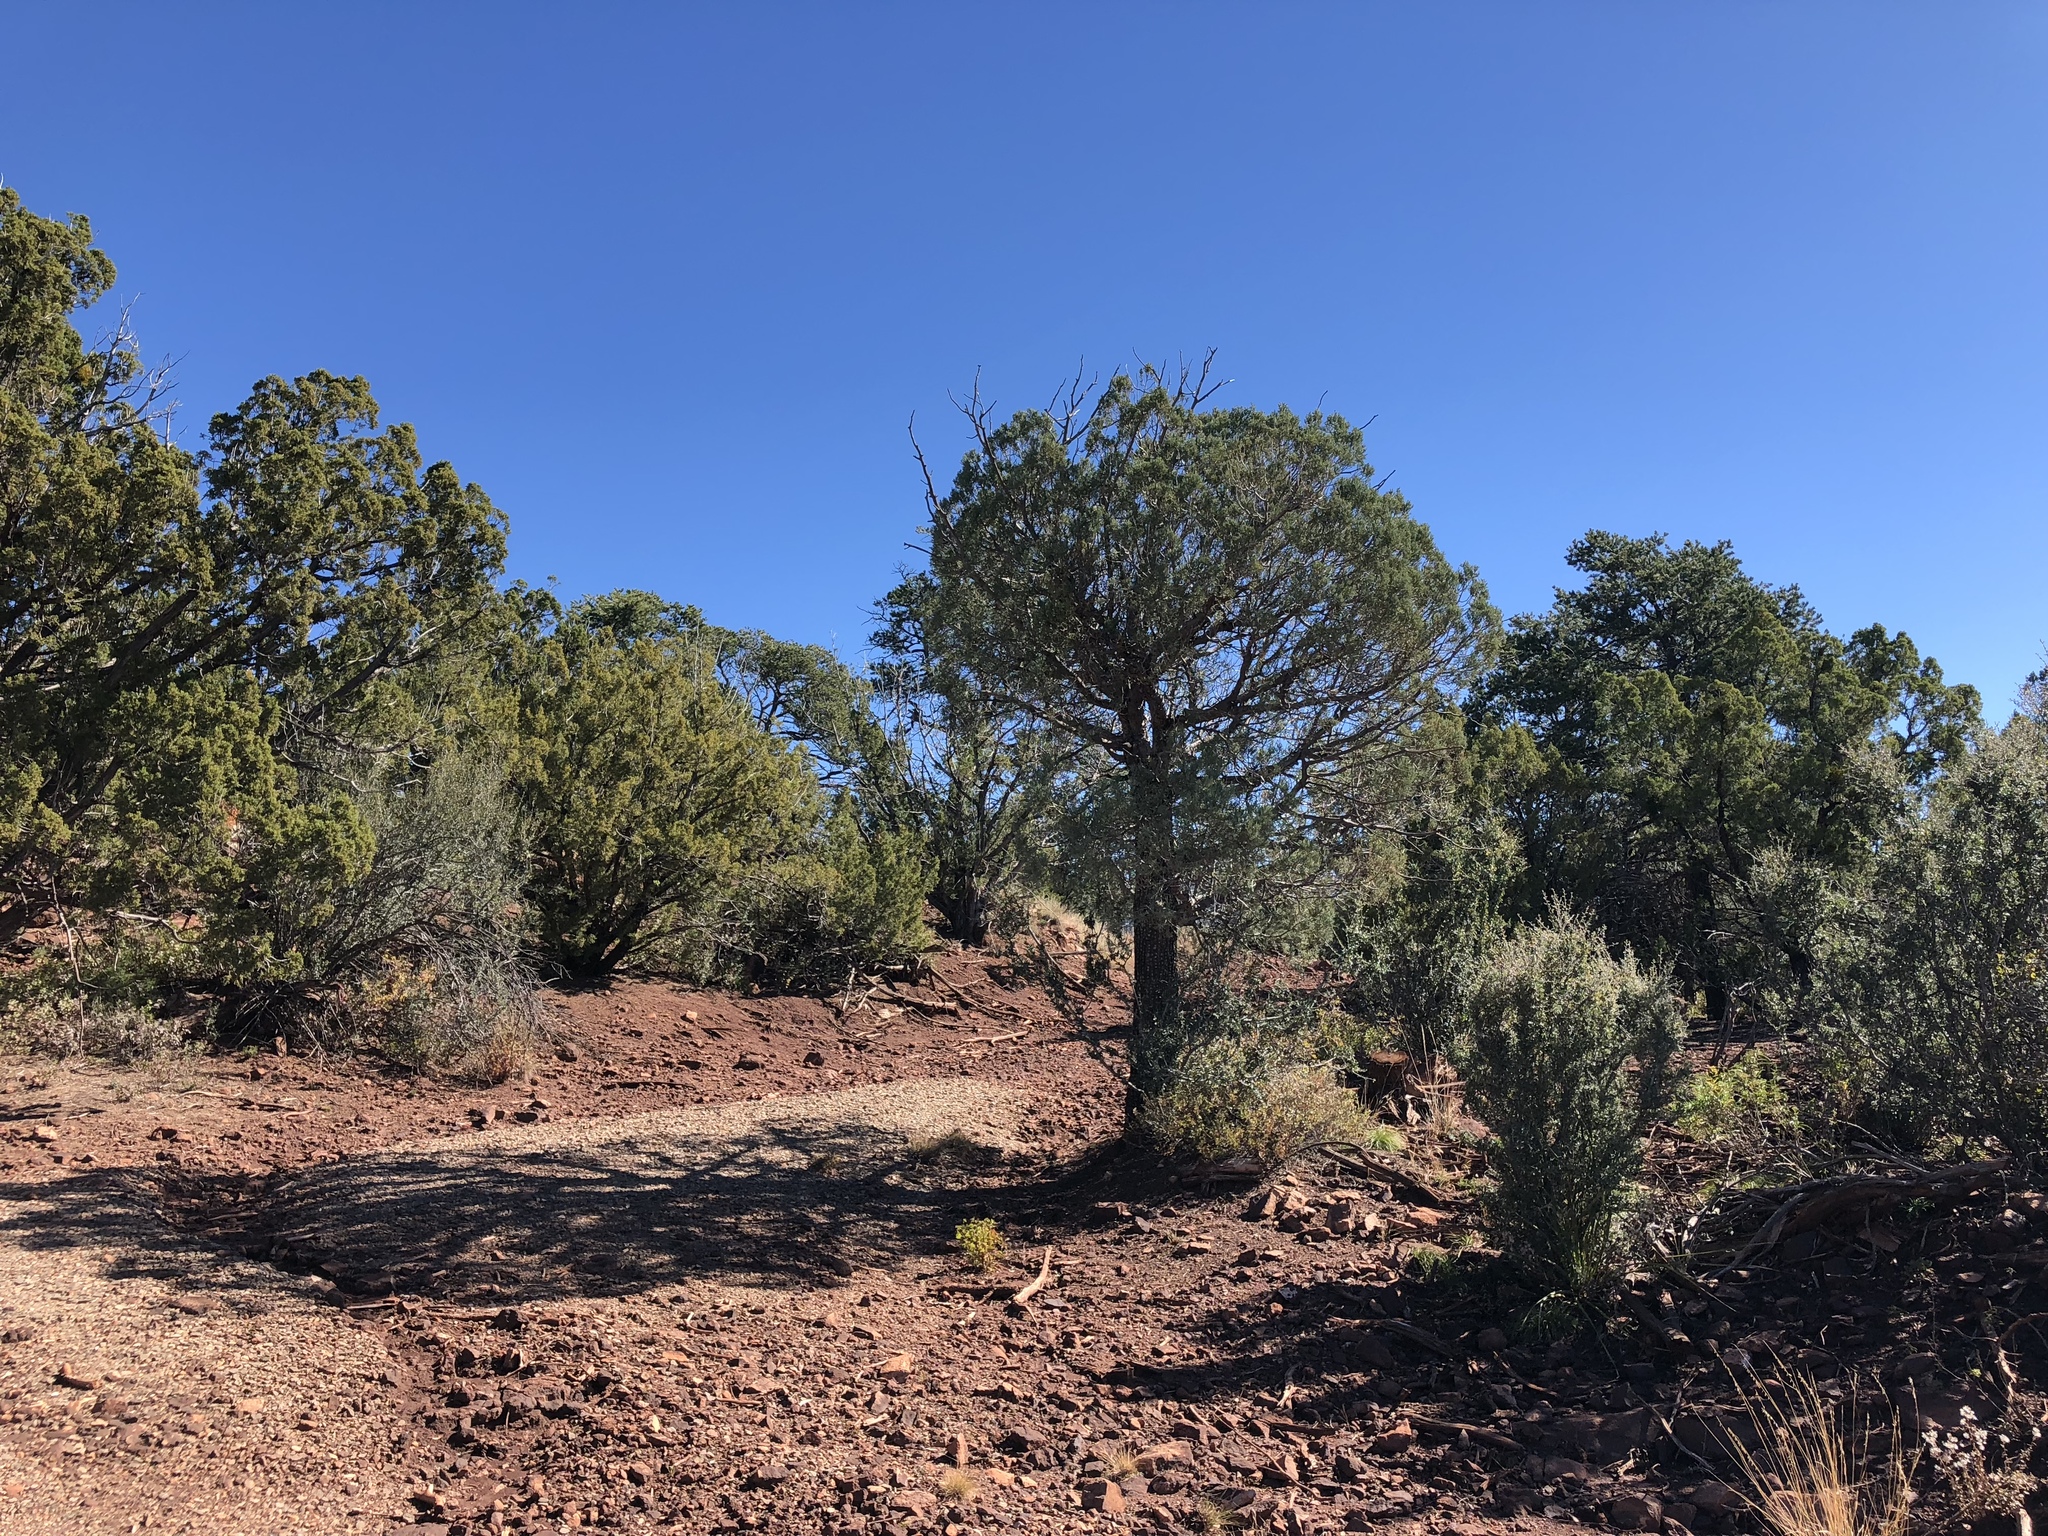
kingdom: Plantae
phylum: Tracheophyta
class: Pinopsida
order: Pinales
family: Cupressaceae
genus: Juniperus
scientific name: Juniperus deppeana
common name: Alligator juniper
